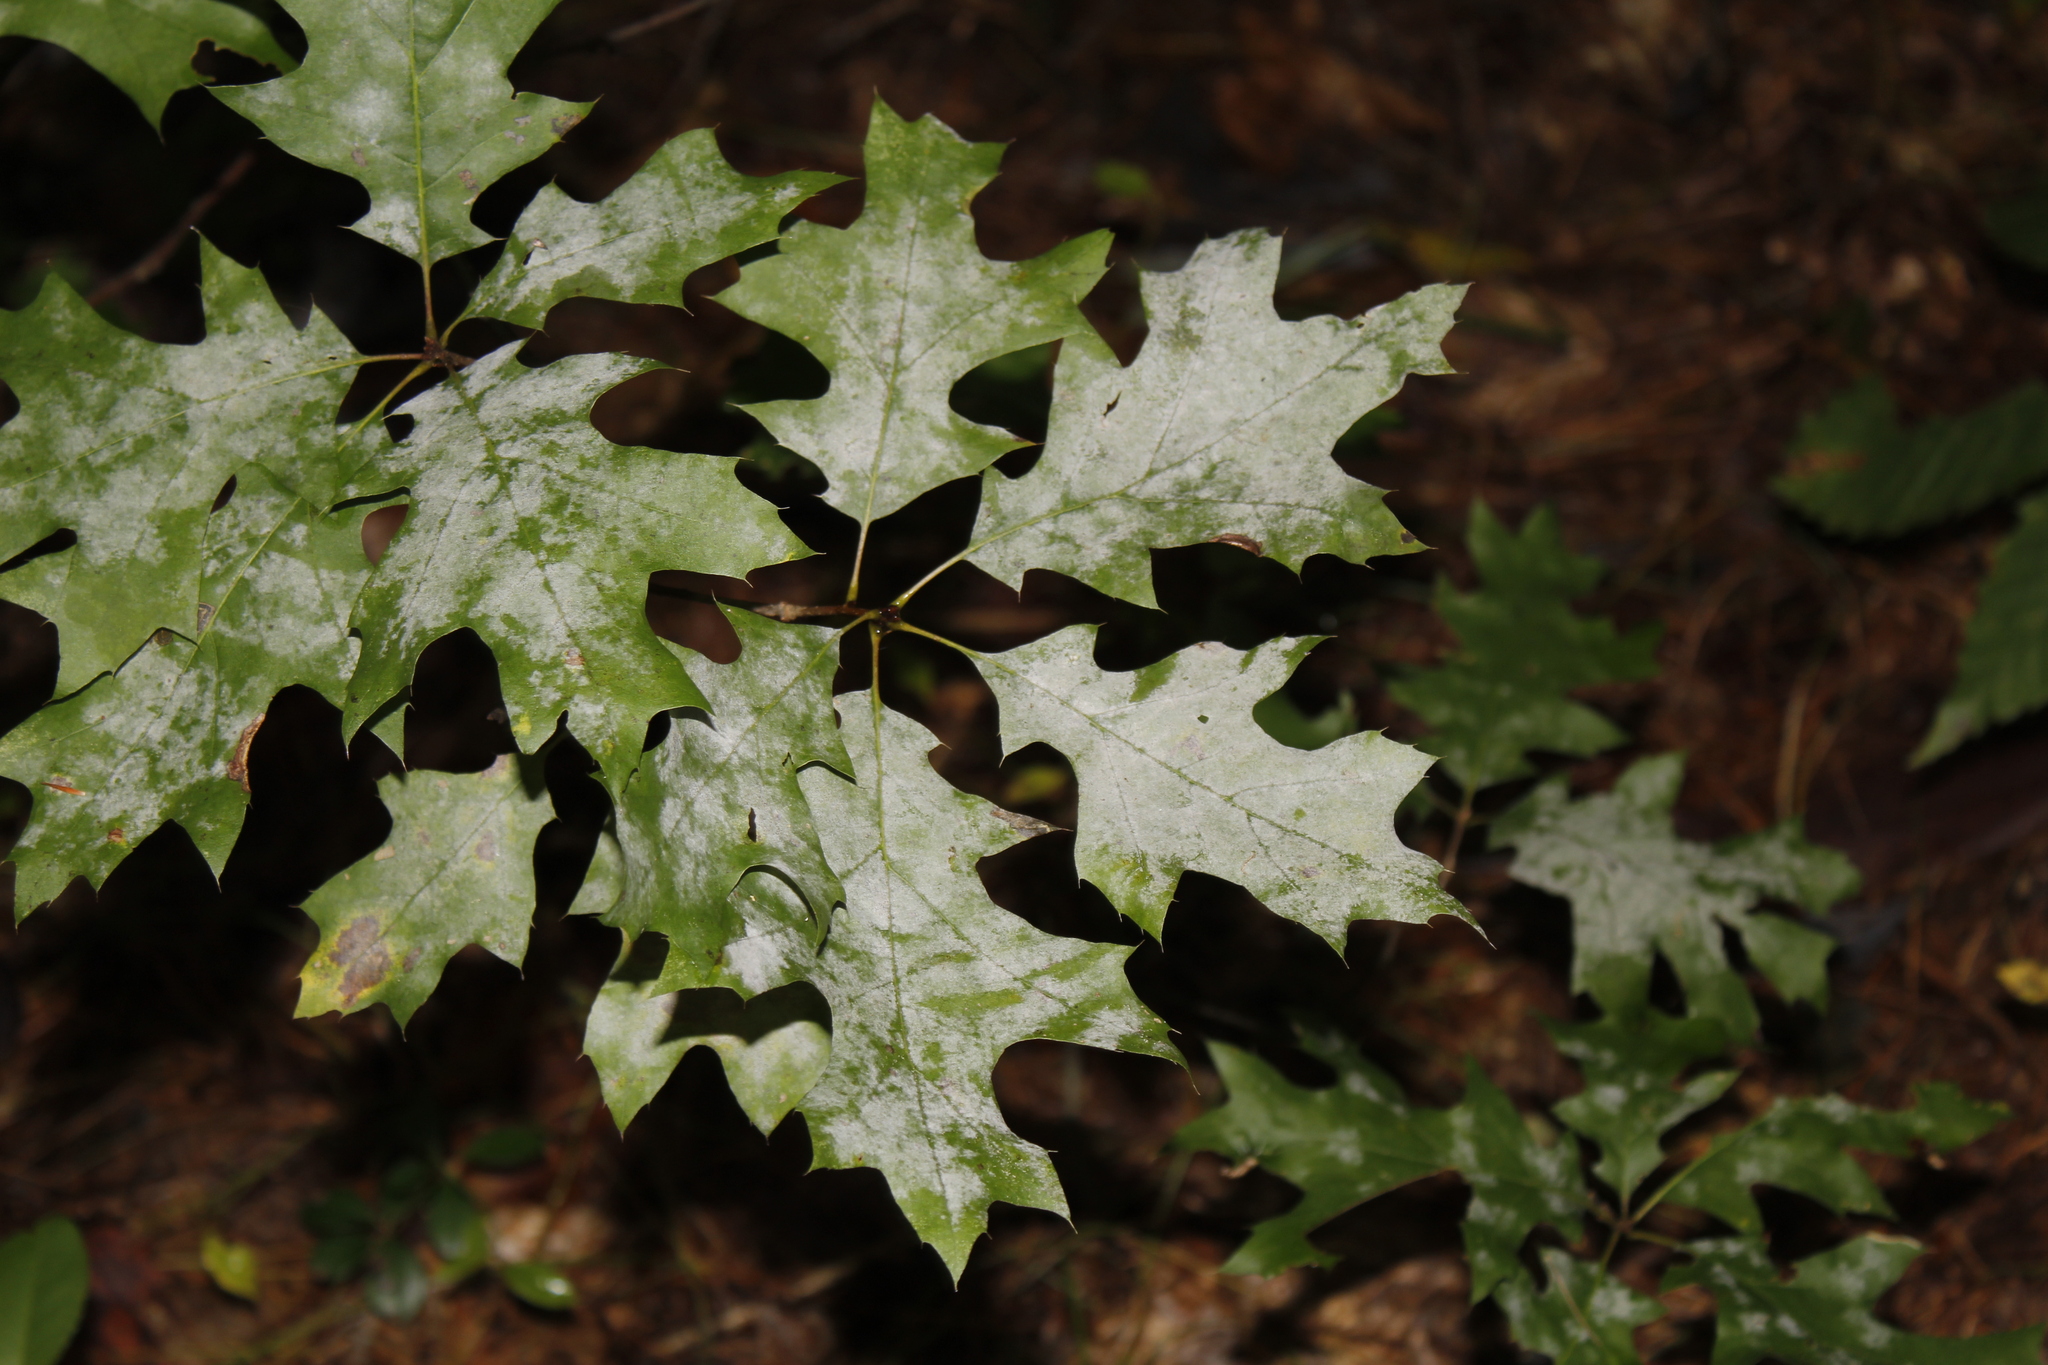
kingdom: Plantae
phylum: Tracheophyta
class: Magnoliopsida
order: Fagales
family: Fagaceae
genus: Quercus
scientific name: Quercus rubra
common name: Red oak
